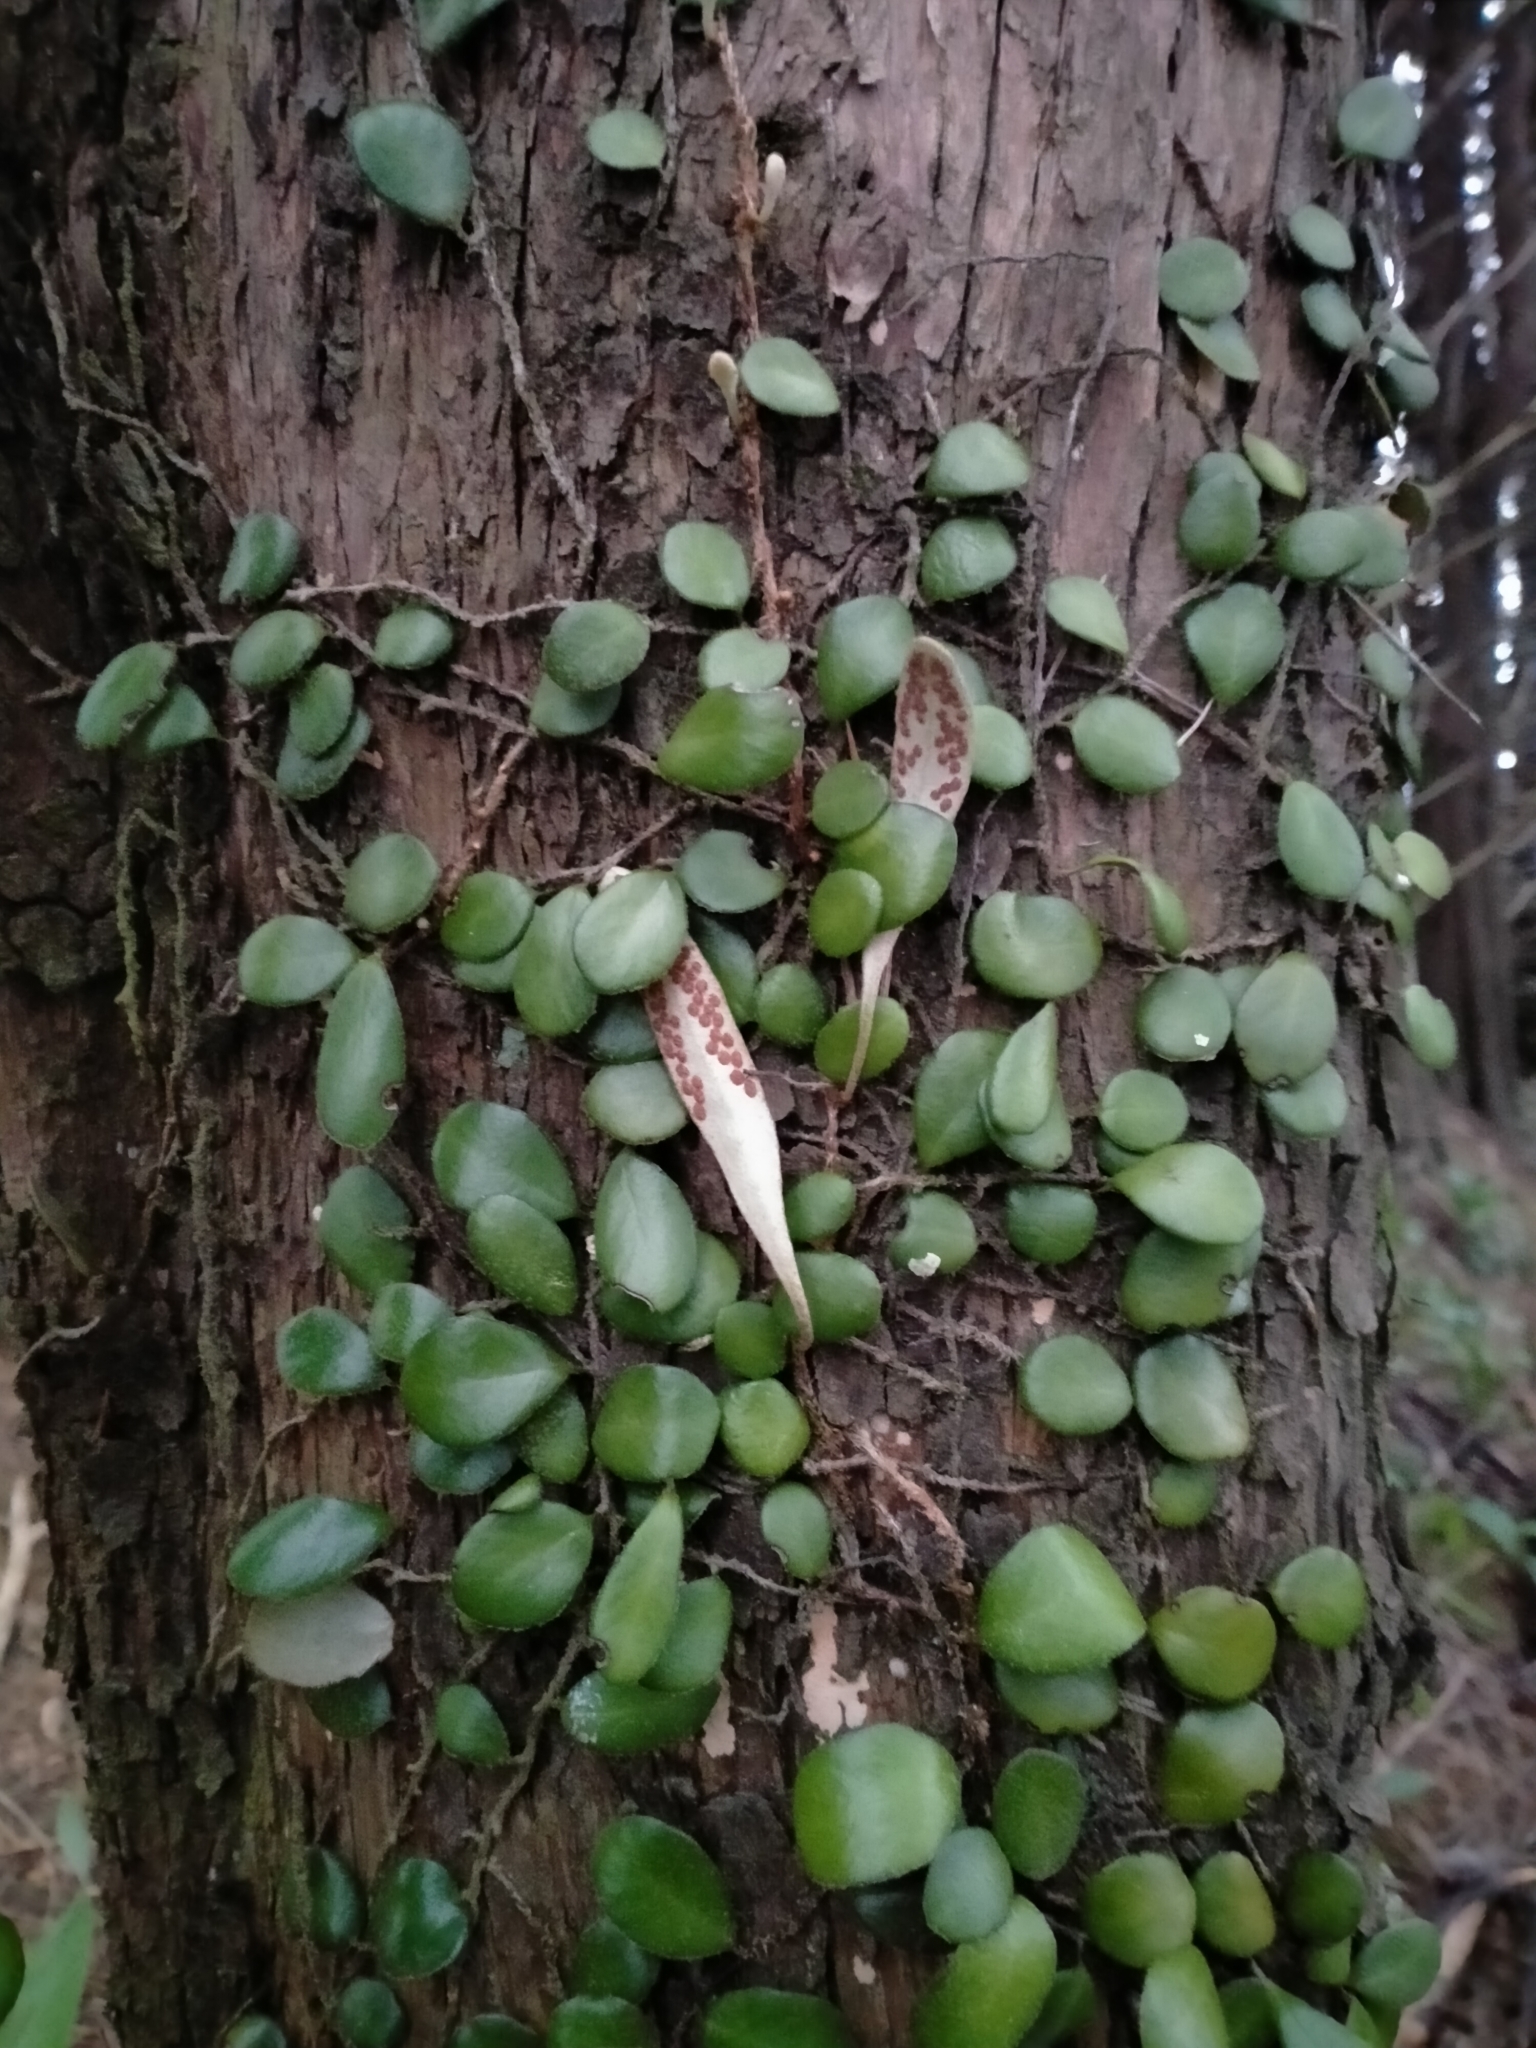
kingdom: Plantae
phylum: Tracheophyta
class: Polypodiopsida
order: Polypodiales
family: Polypodiaceae
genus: Pyrrosia
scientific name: Pyrrosia eleagnifolia
